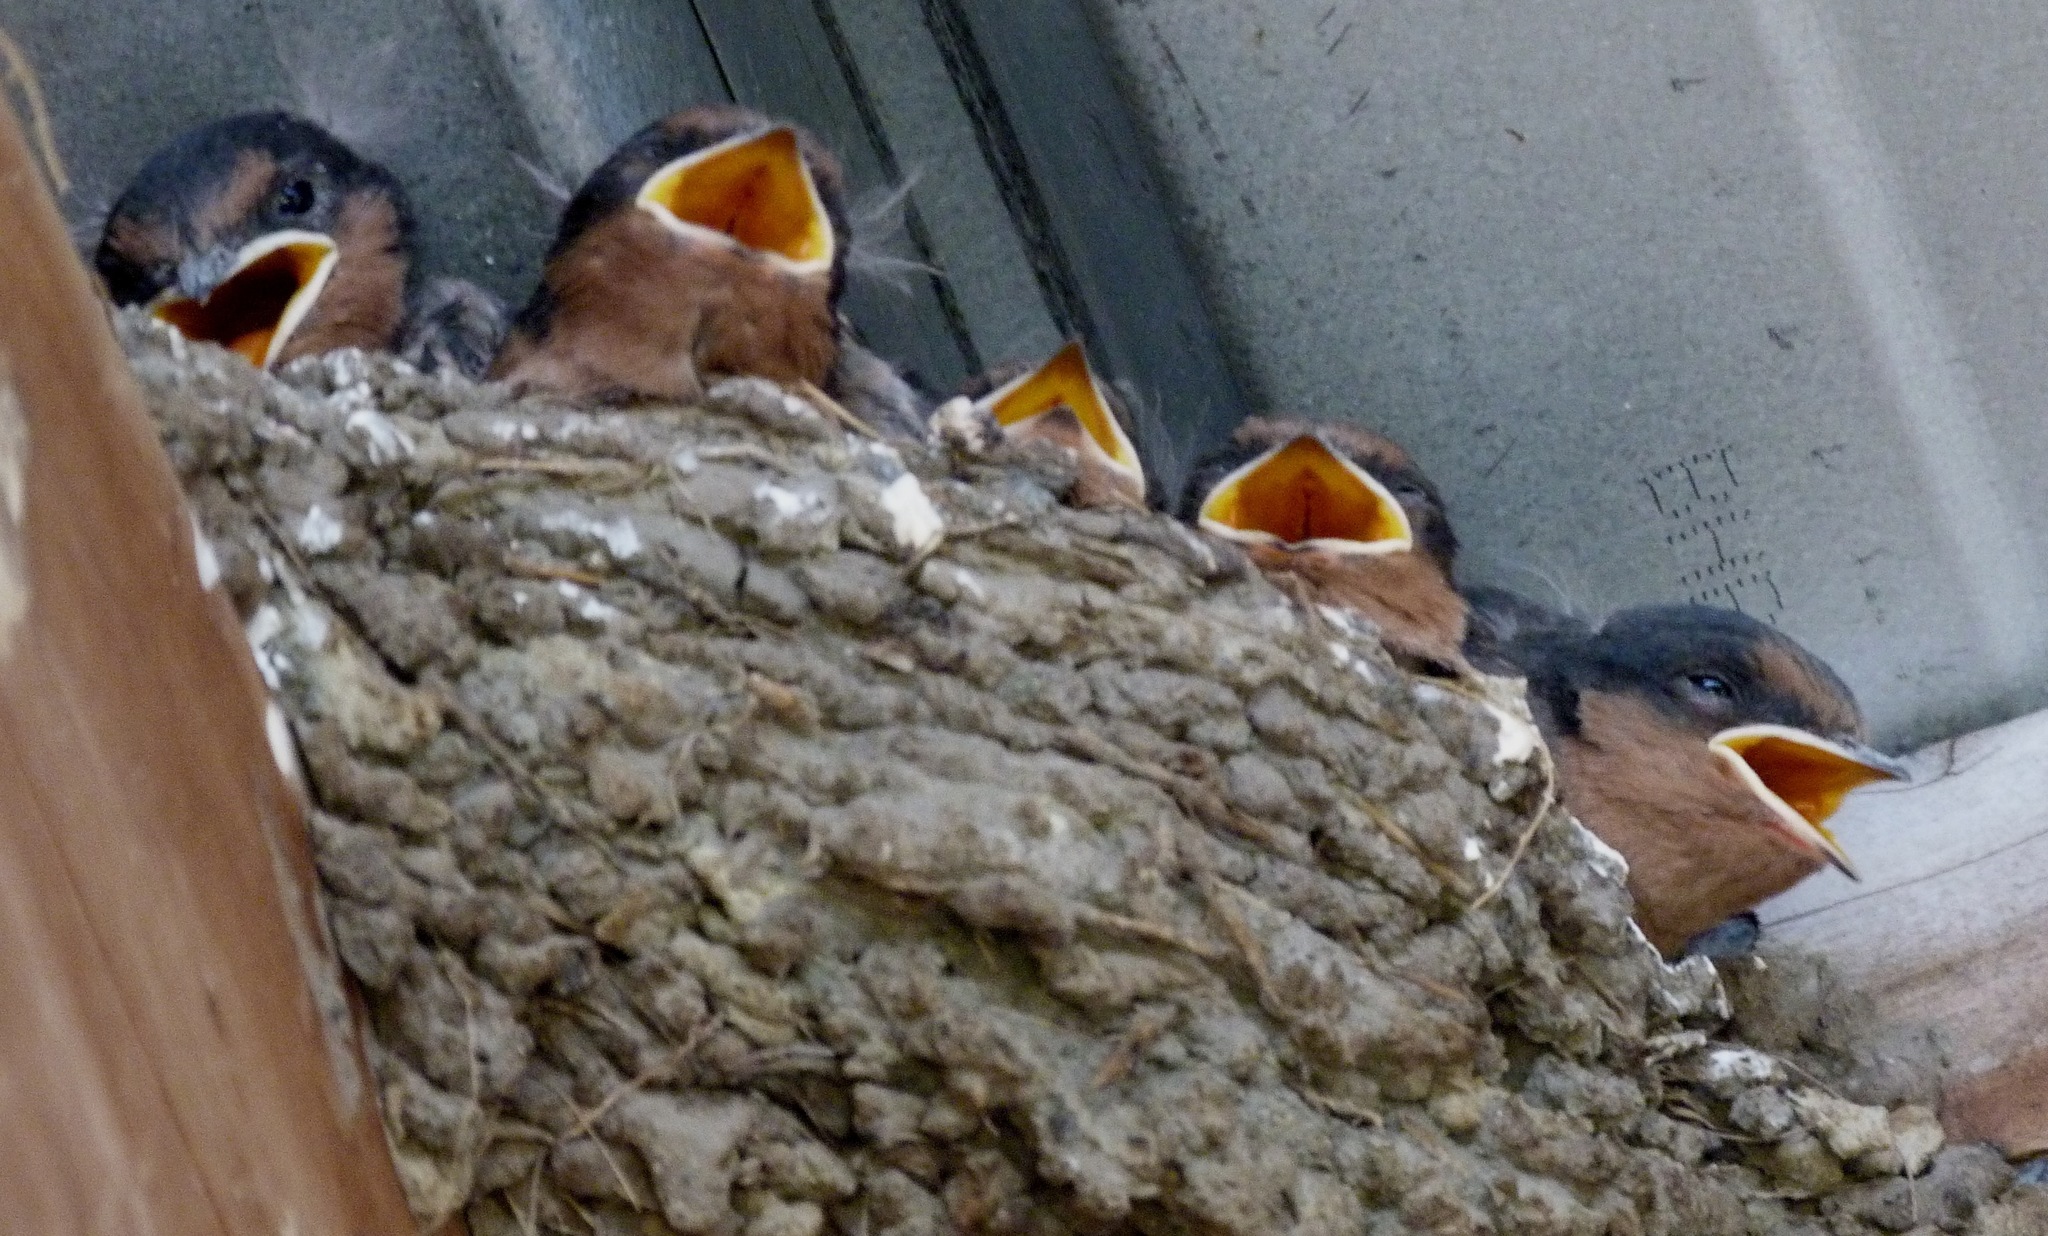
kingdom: Animalia
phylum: Chordata
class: Aves
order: Passeriformes
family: Hirundinidae
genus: Hirundo
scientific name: Hirundo neoxena
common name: Welcome swallow
